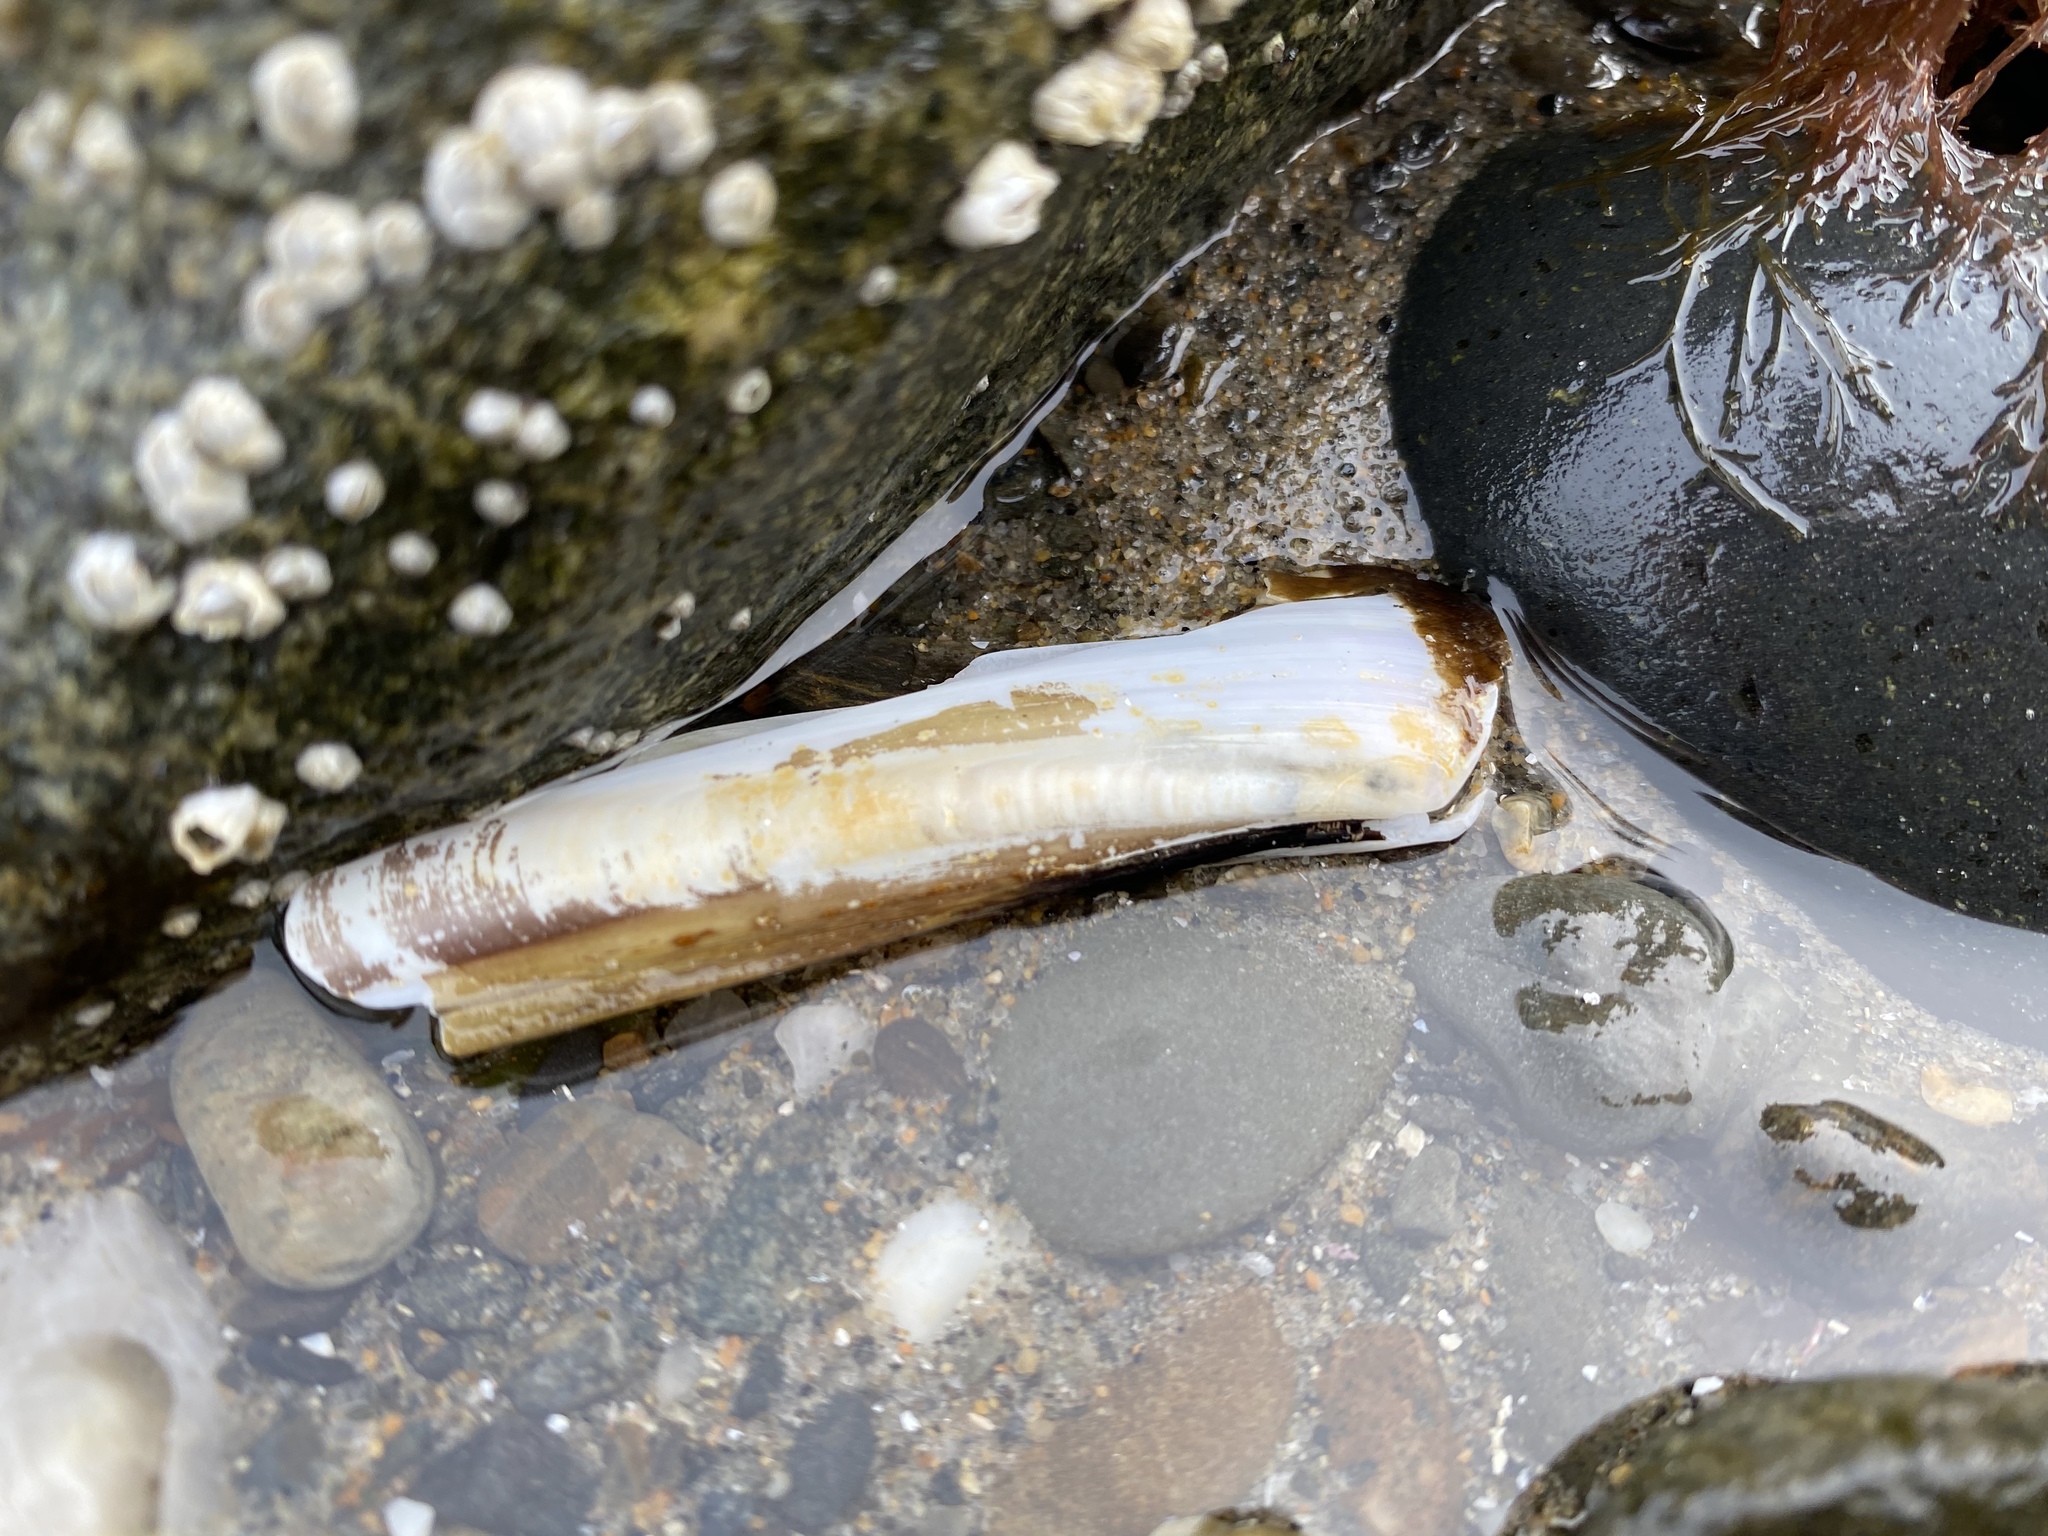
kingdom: Animalia
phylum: Mollusca
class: Bivalvia
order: Adapedonta
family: Pharidae
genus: Ensis
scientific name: Ensis leei
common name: American jack knife clam
